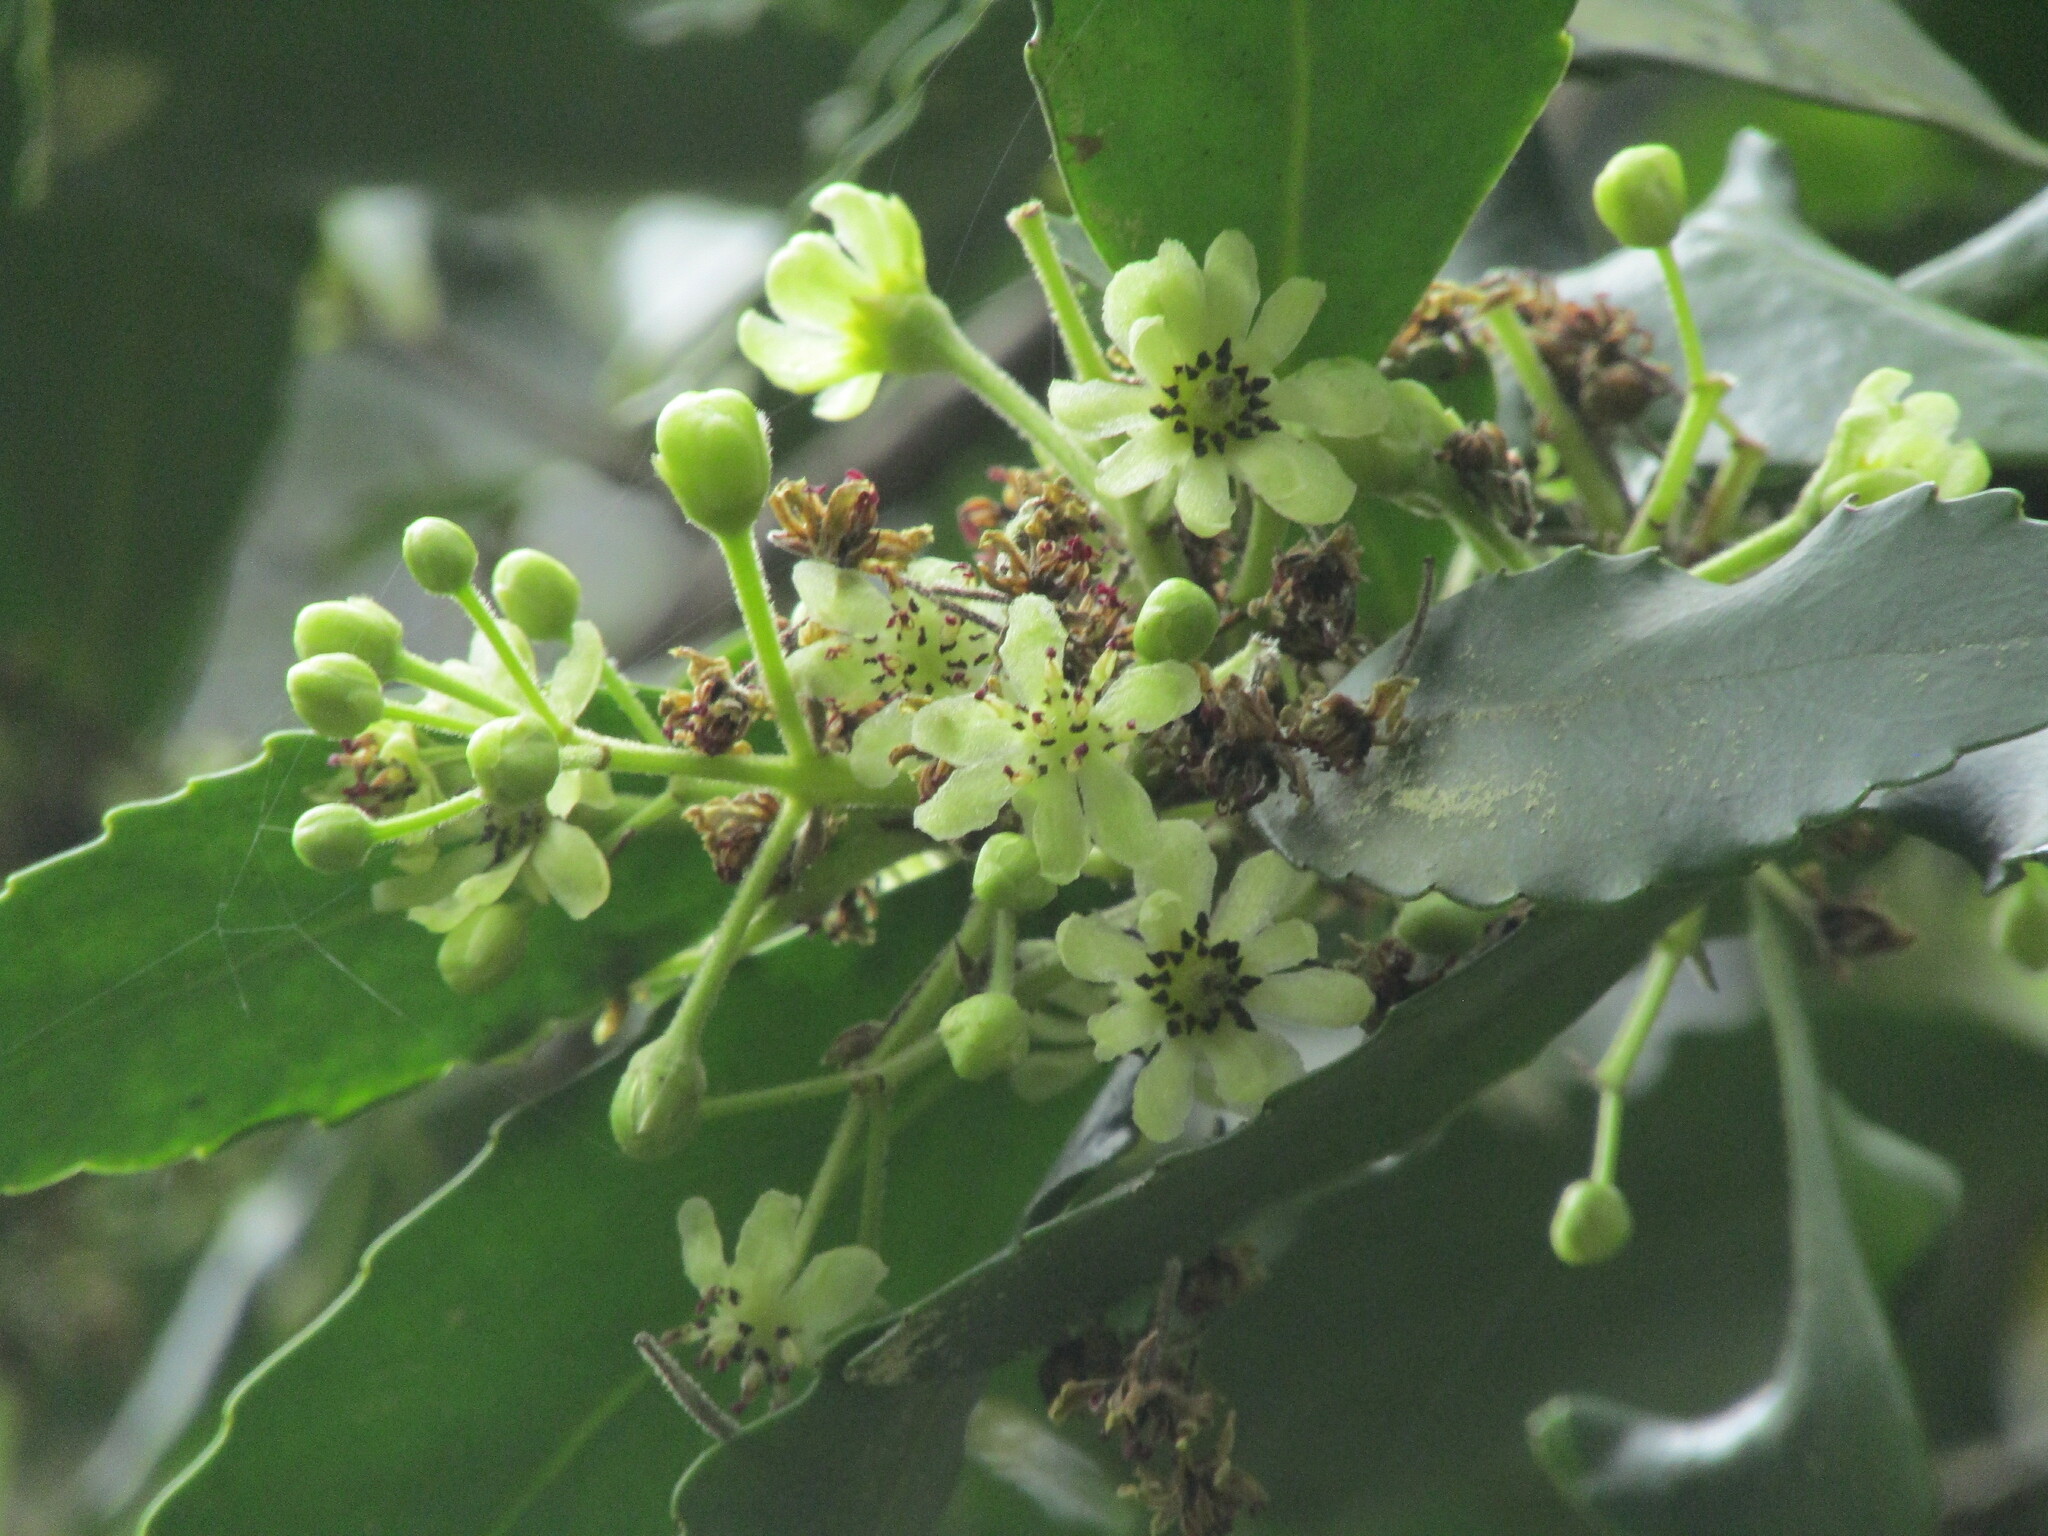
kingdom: Plantae
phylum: Tracheophyta
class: Magnoliopsida
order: Laurales
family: Atherospermataceae
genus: Laurelia
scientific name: Laurelia sempervirens
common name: Chilean laurel
